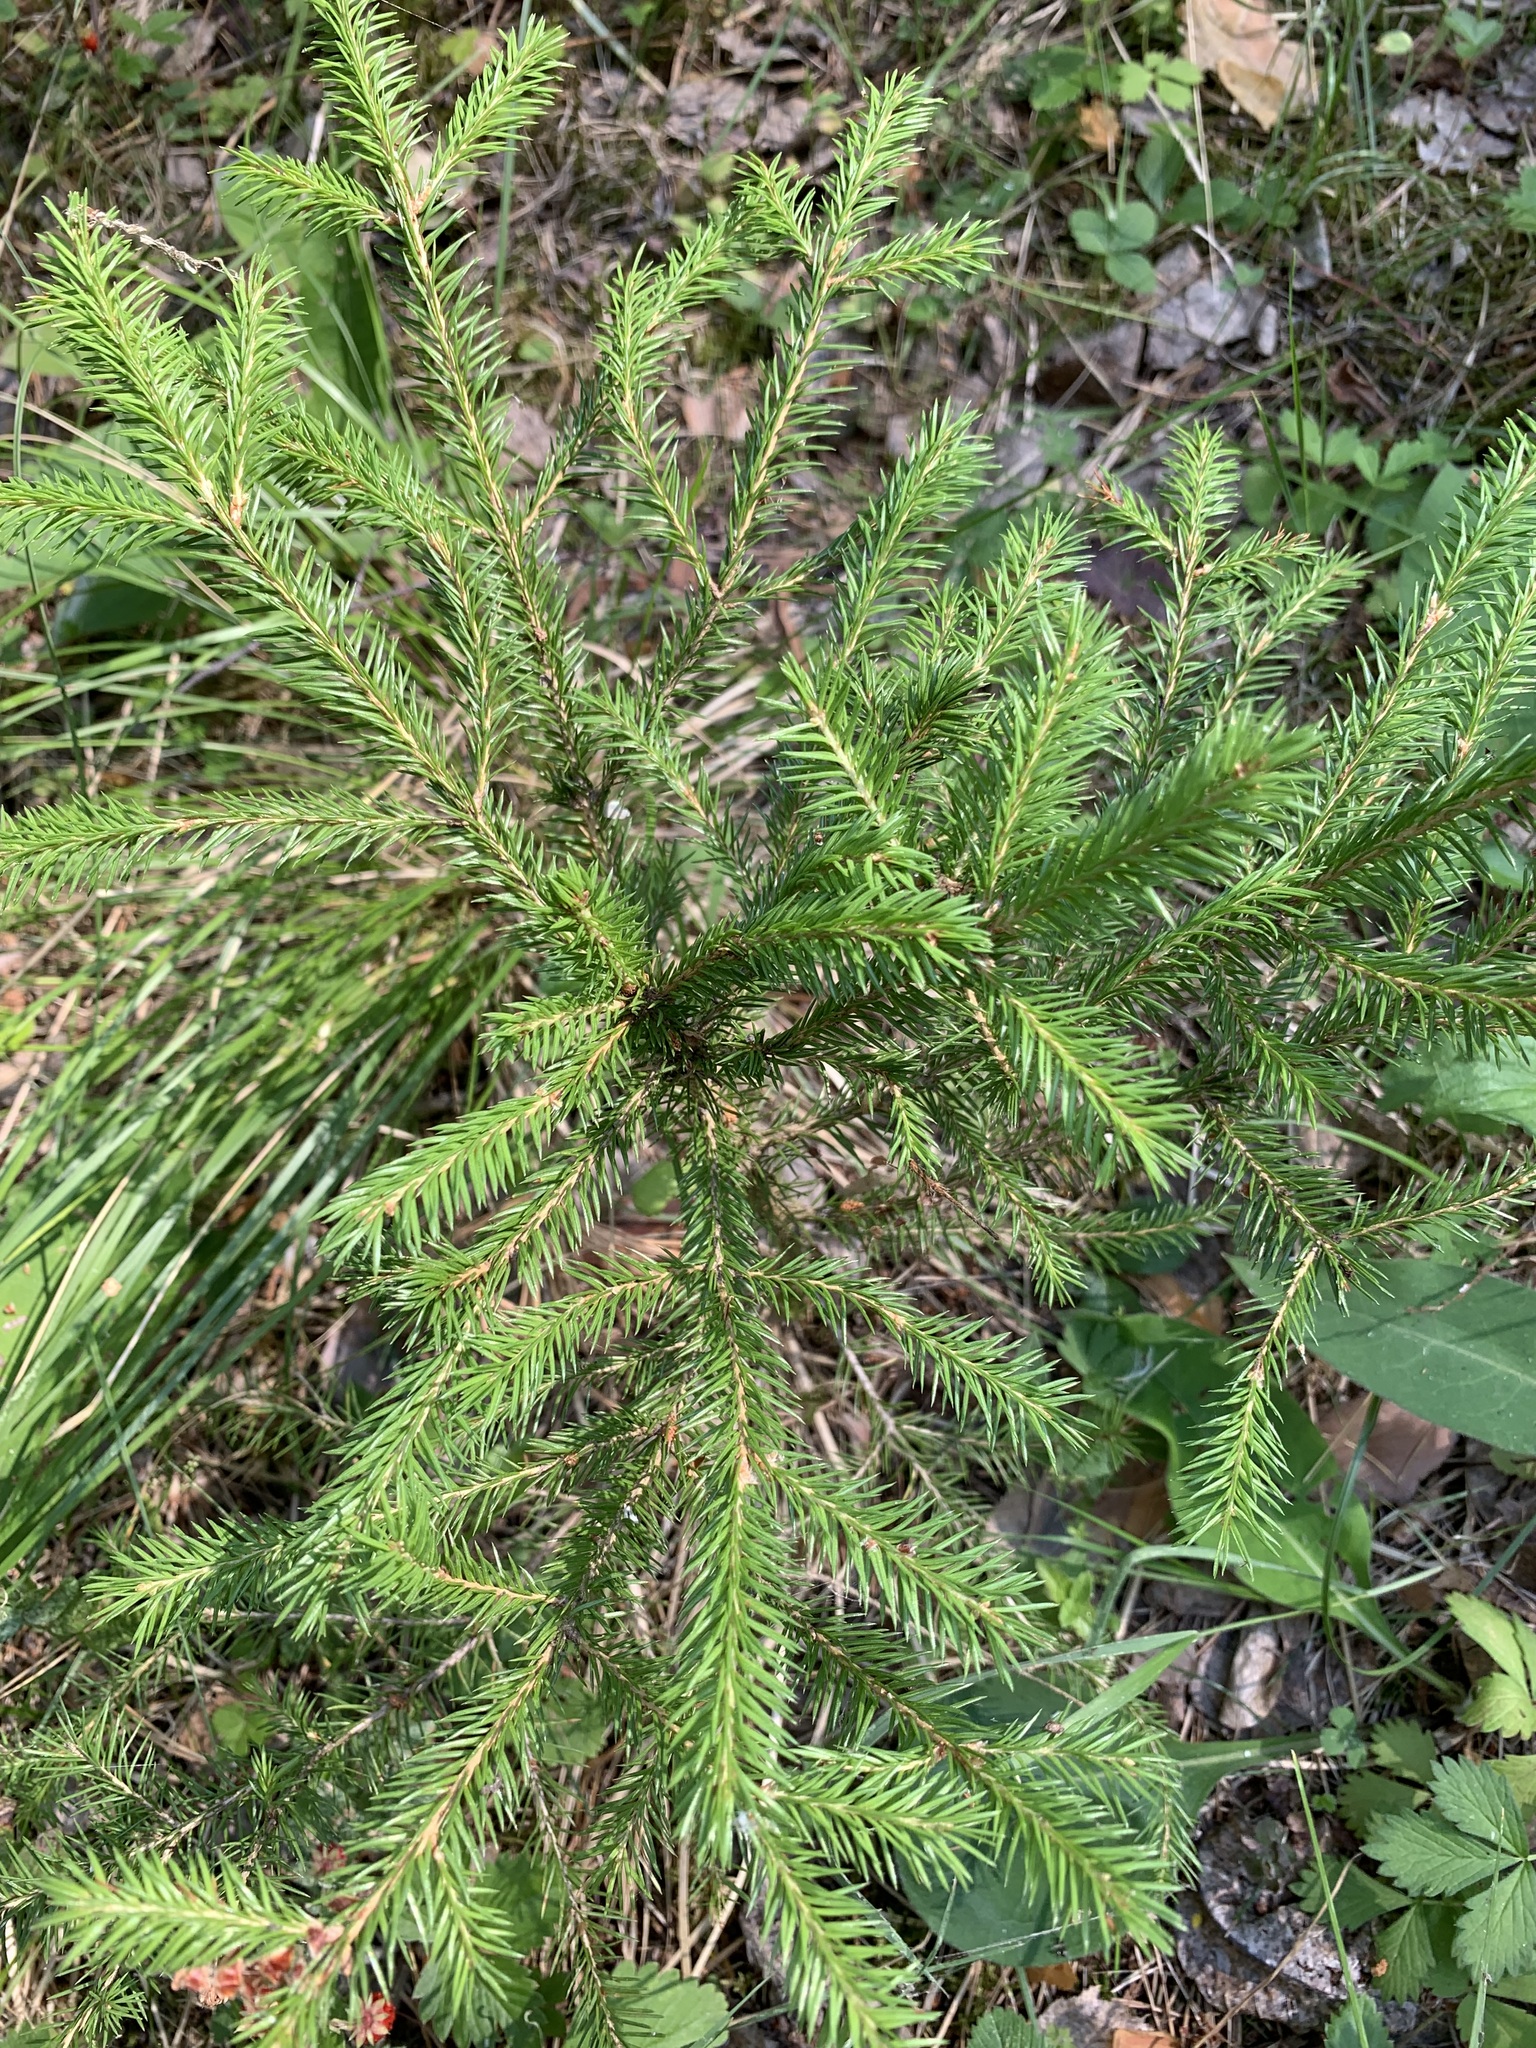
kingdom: Plantae
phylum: Tracheophyta
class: Pinopsida
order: Pinales
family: Pinaceae
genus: Picea
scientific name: Picea obovata
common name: Siberian spruce
